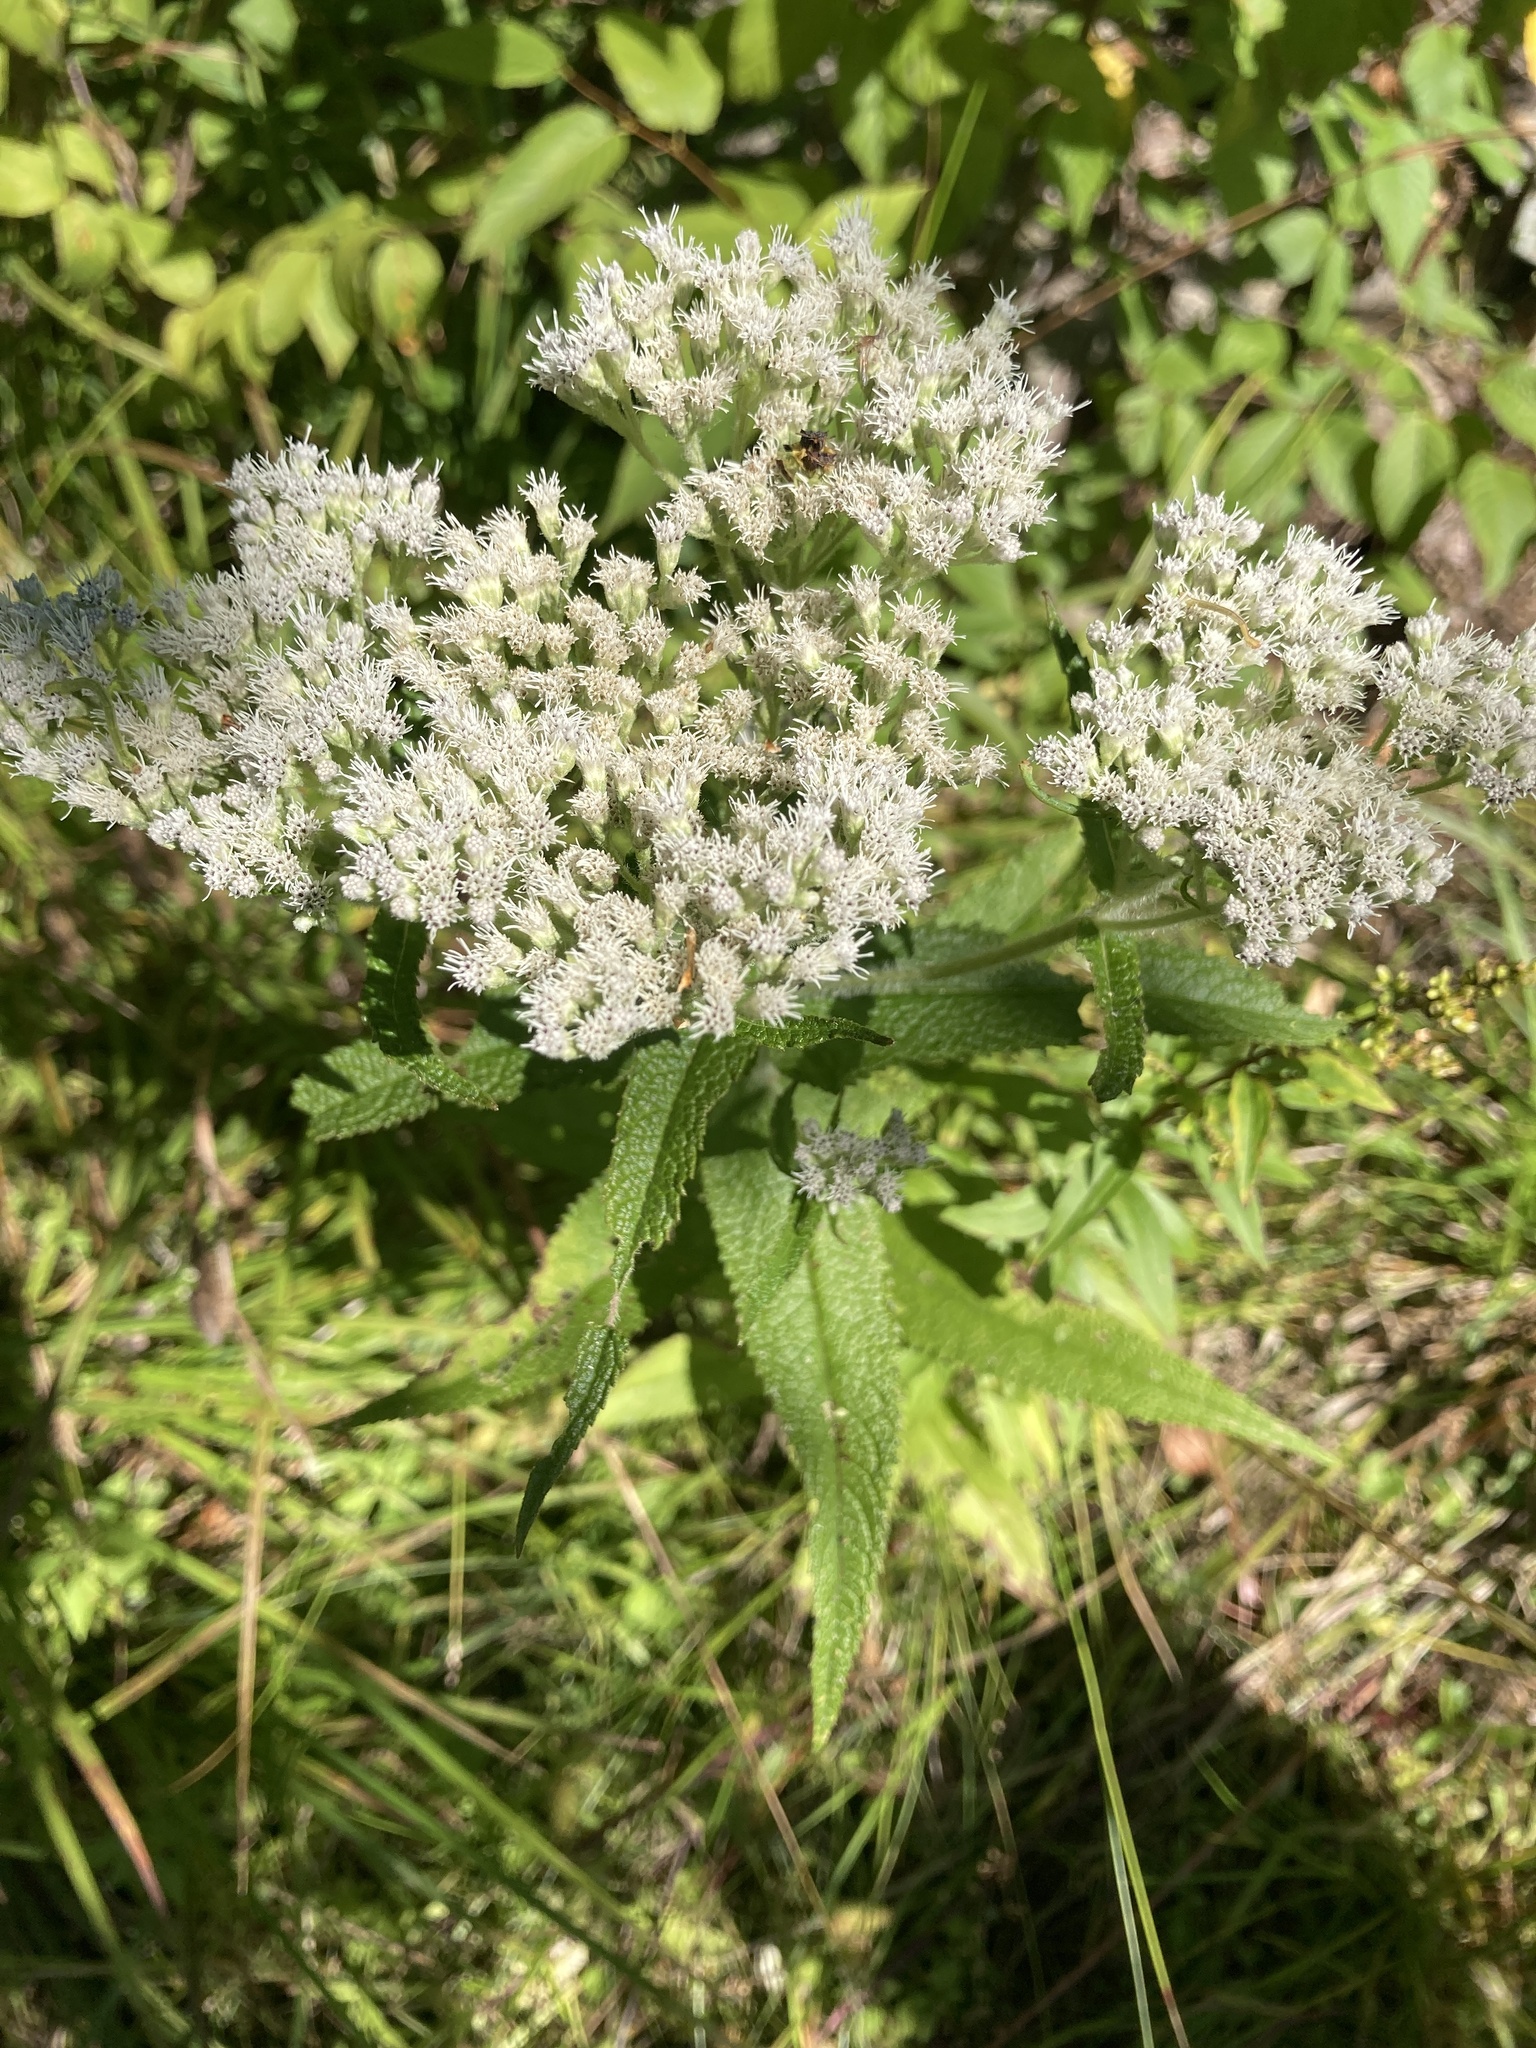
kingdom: Plantae
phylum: Tracheophyta
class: Magnoliopsida
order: Asterales
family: Asteraceae
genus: Eupatorium
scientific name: Eupatorium perfoliatum
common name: Boneset
